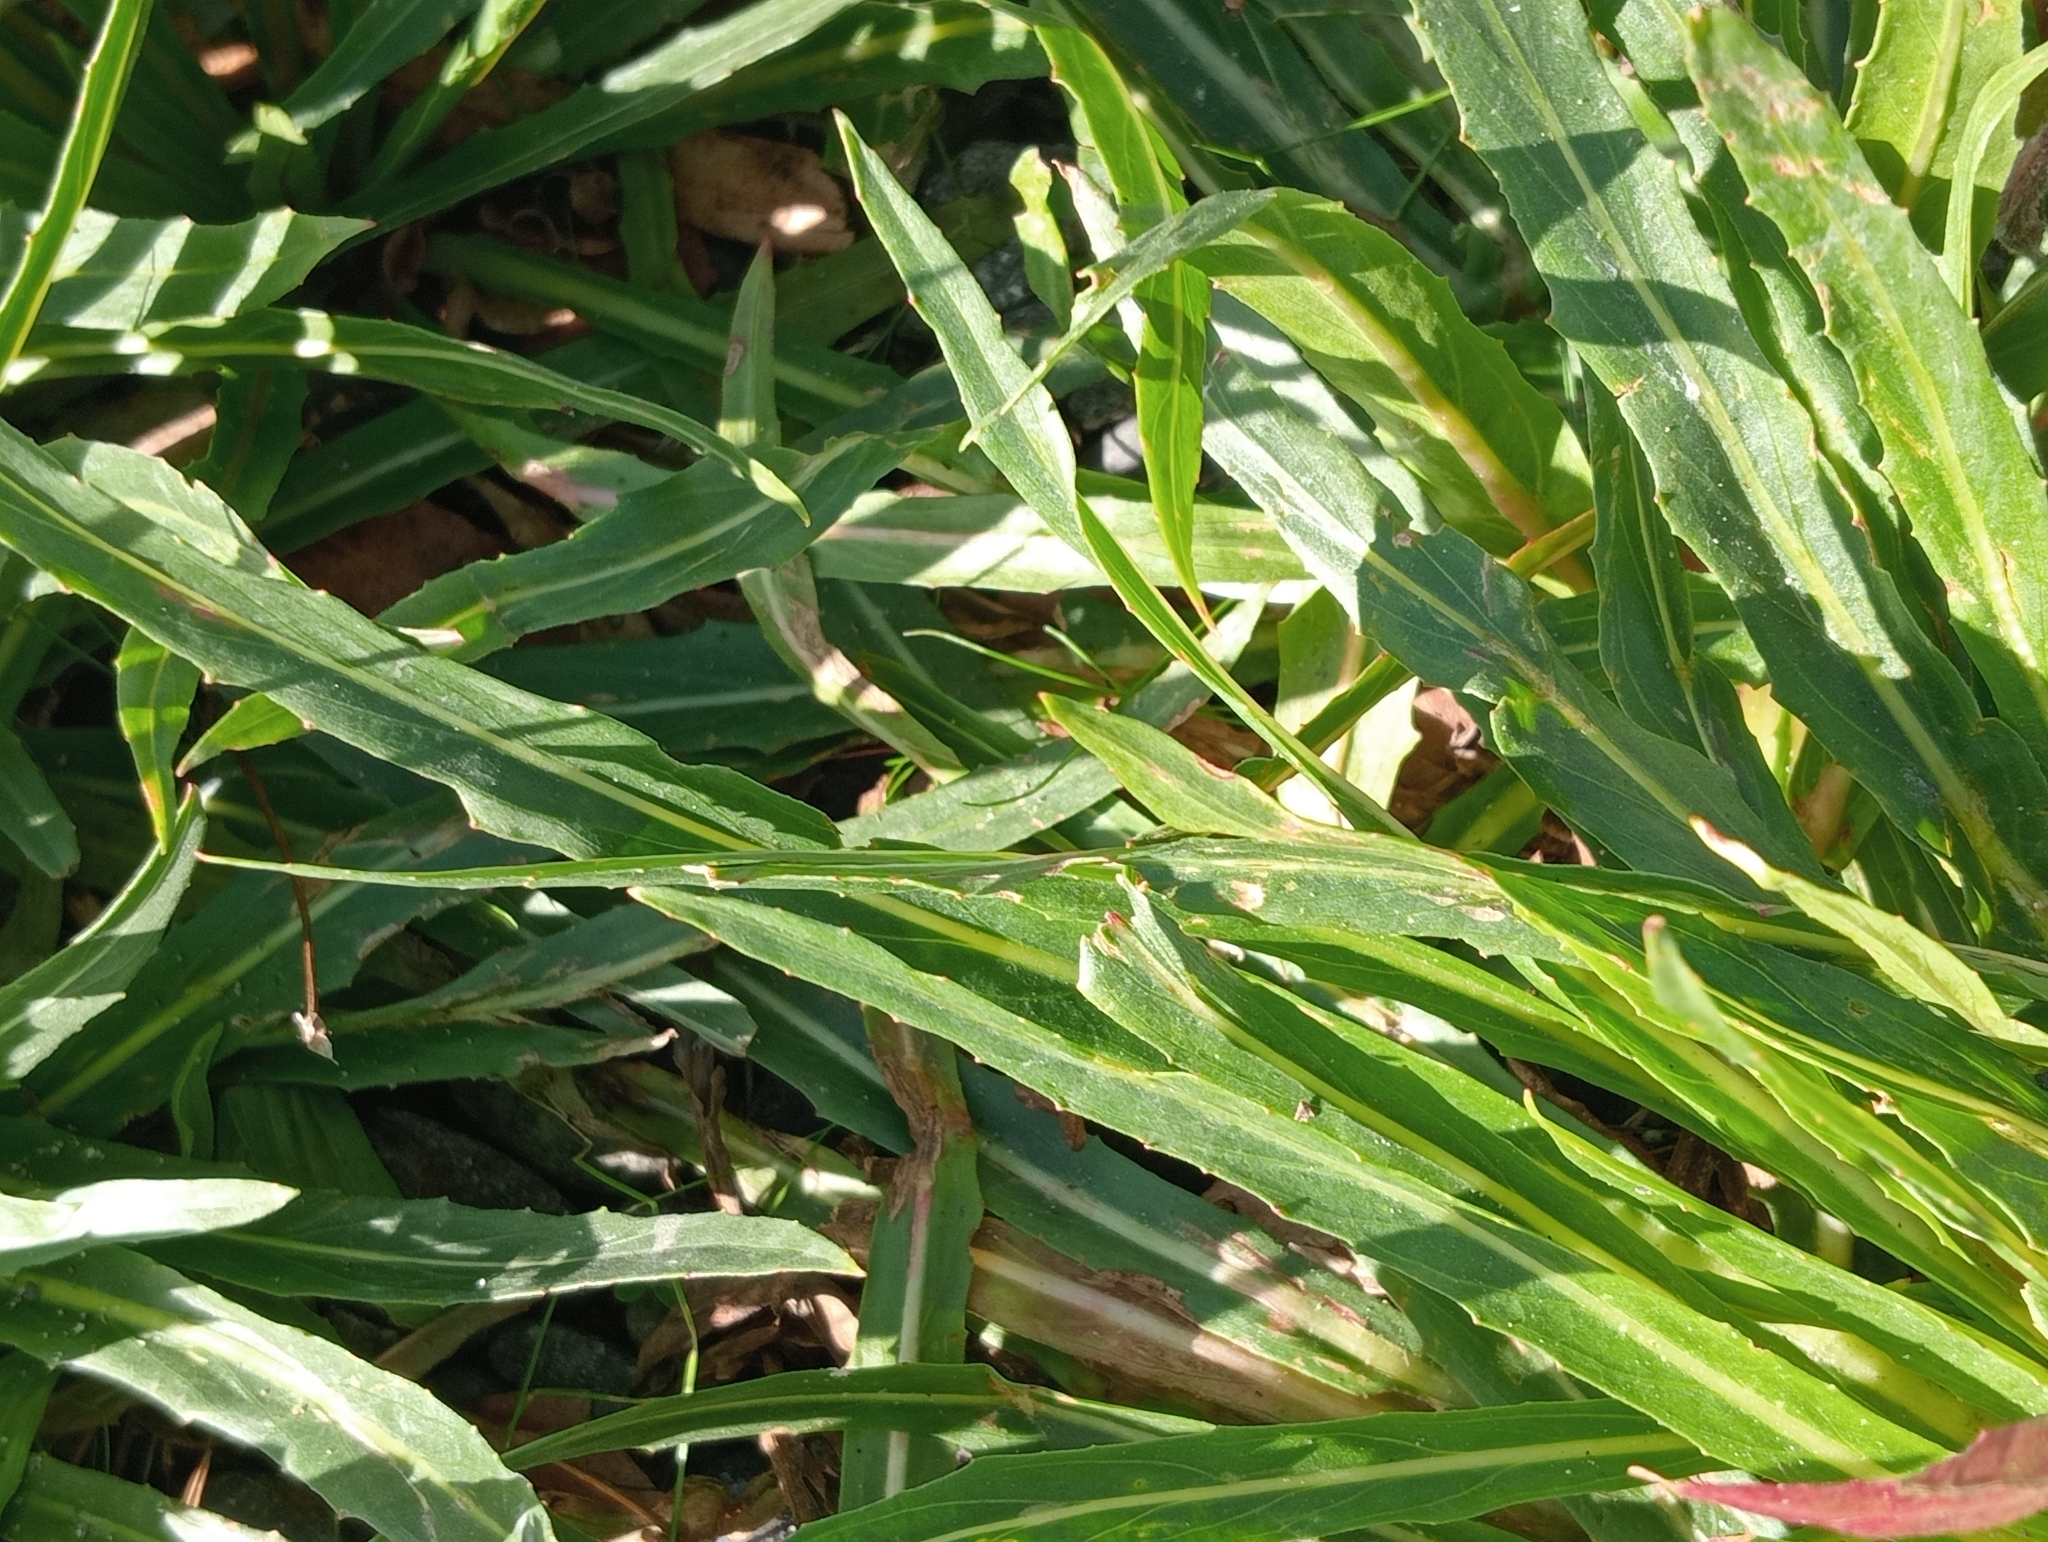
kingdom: Plantae
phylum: Tracheophyta
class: Magnoliopsida
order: Myrtales
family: Onagraceae
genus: Oenothera
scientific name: Oenothera stricta
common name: Fragrant evening-primrose
